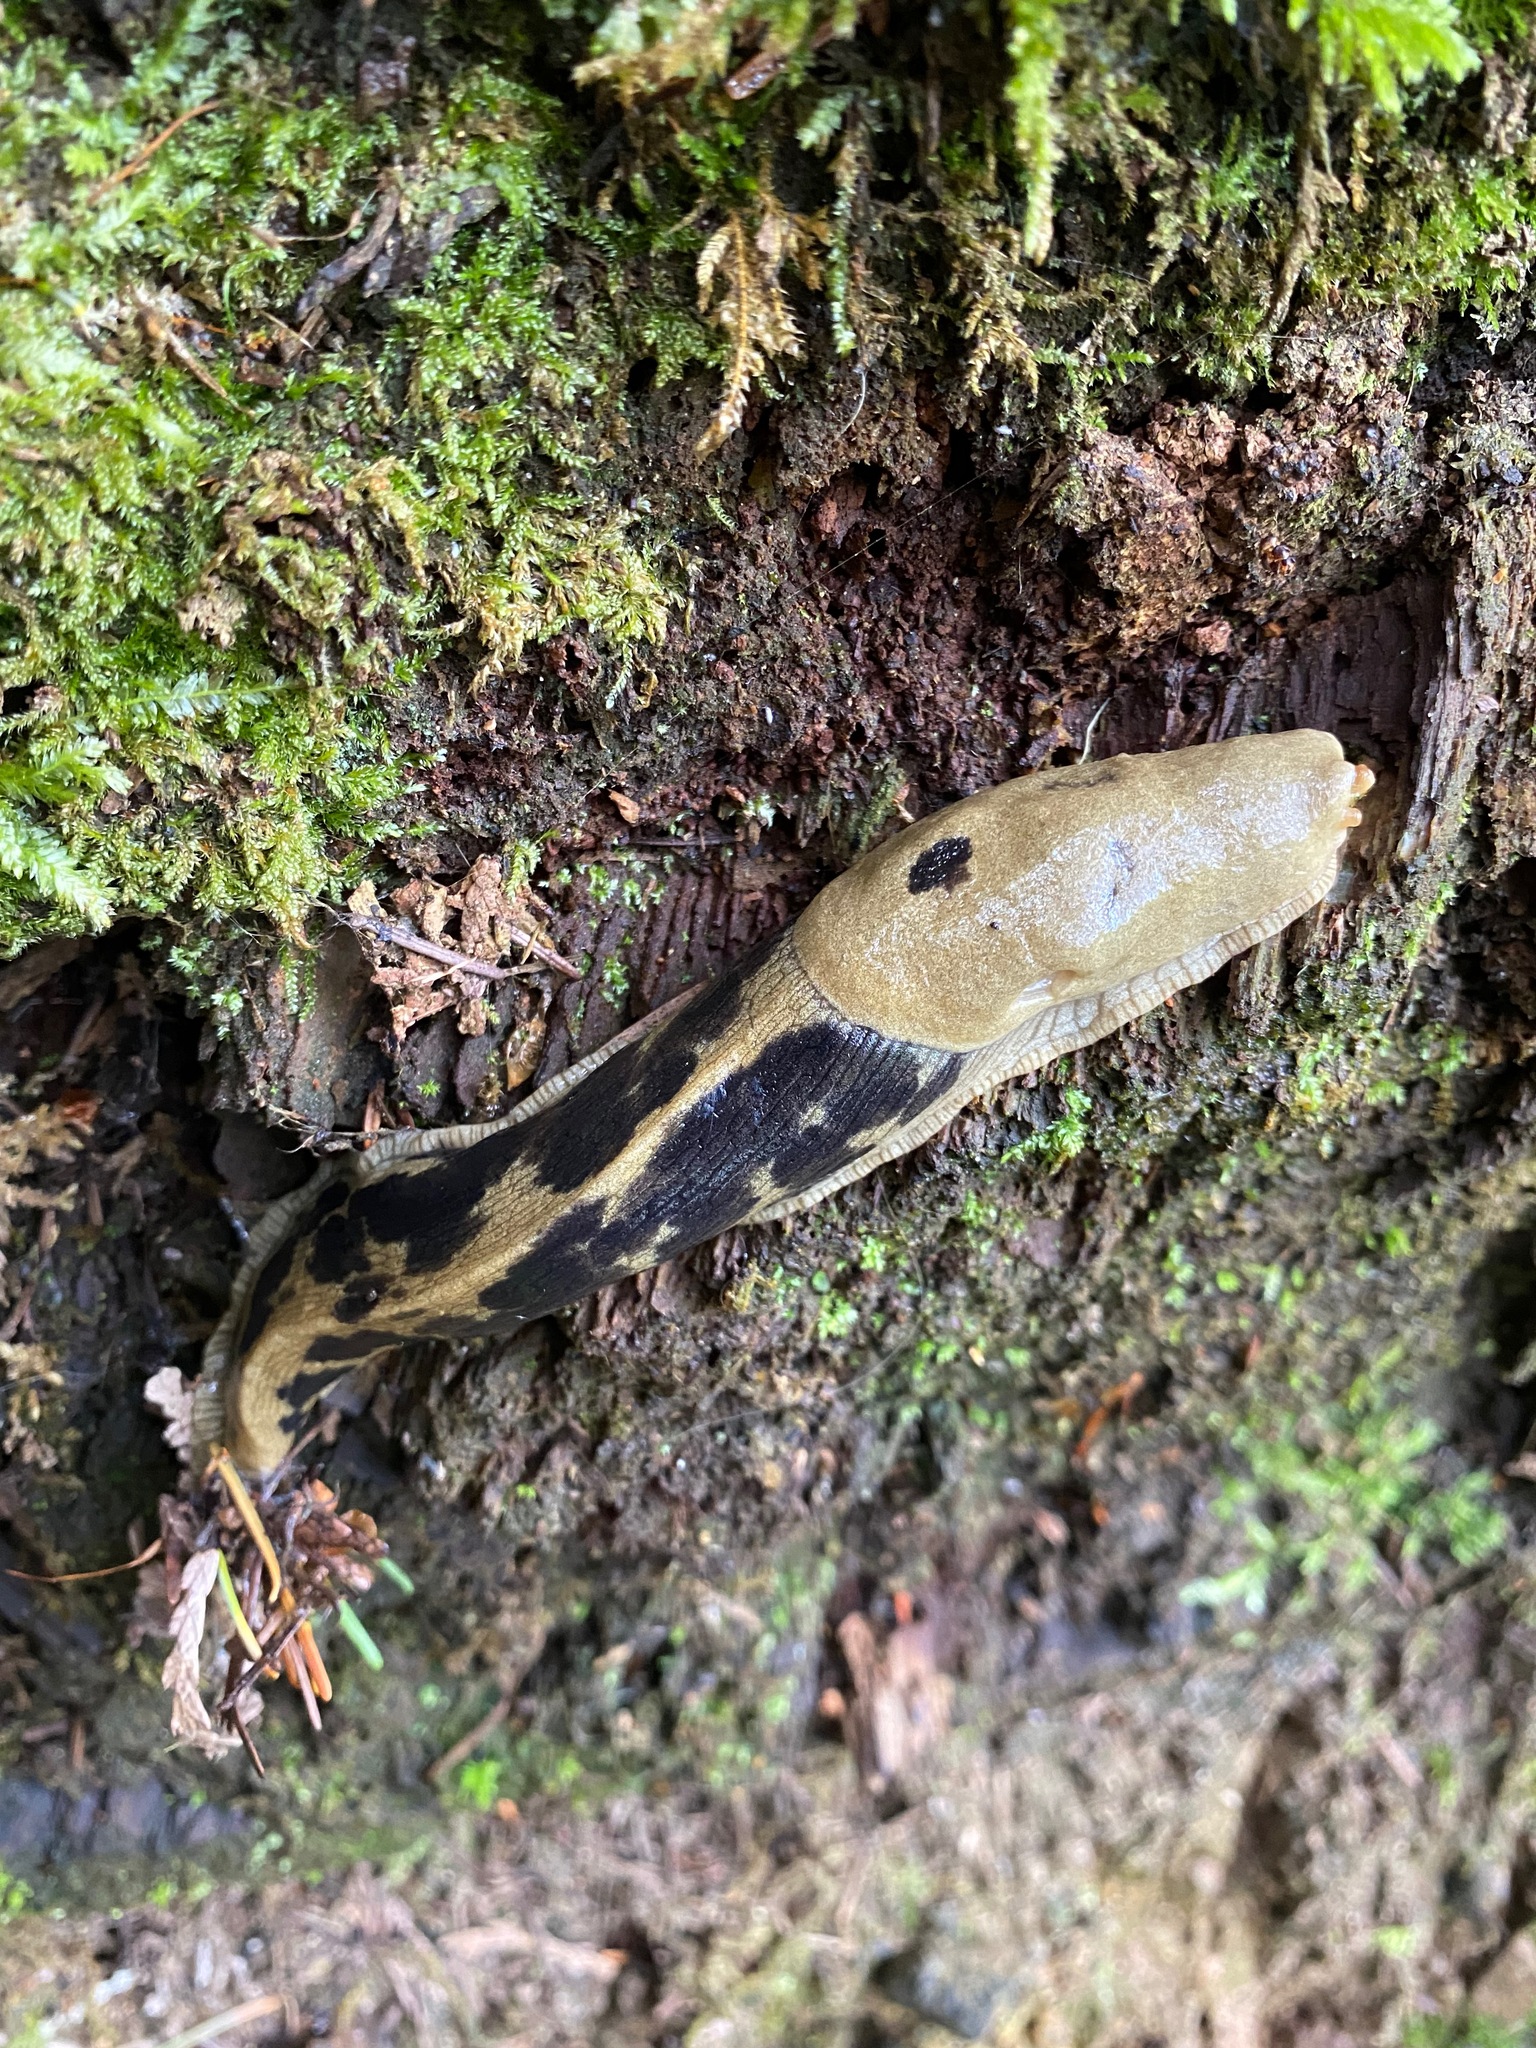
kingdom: Animalia
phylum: Mollusca
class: Gastropoda
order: Stylommatophora
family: Ariolimacidae
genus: Ariolimax
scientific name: Ariolimax columbianus
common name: Pacific banana slug
